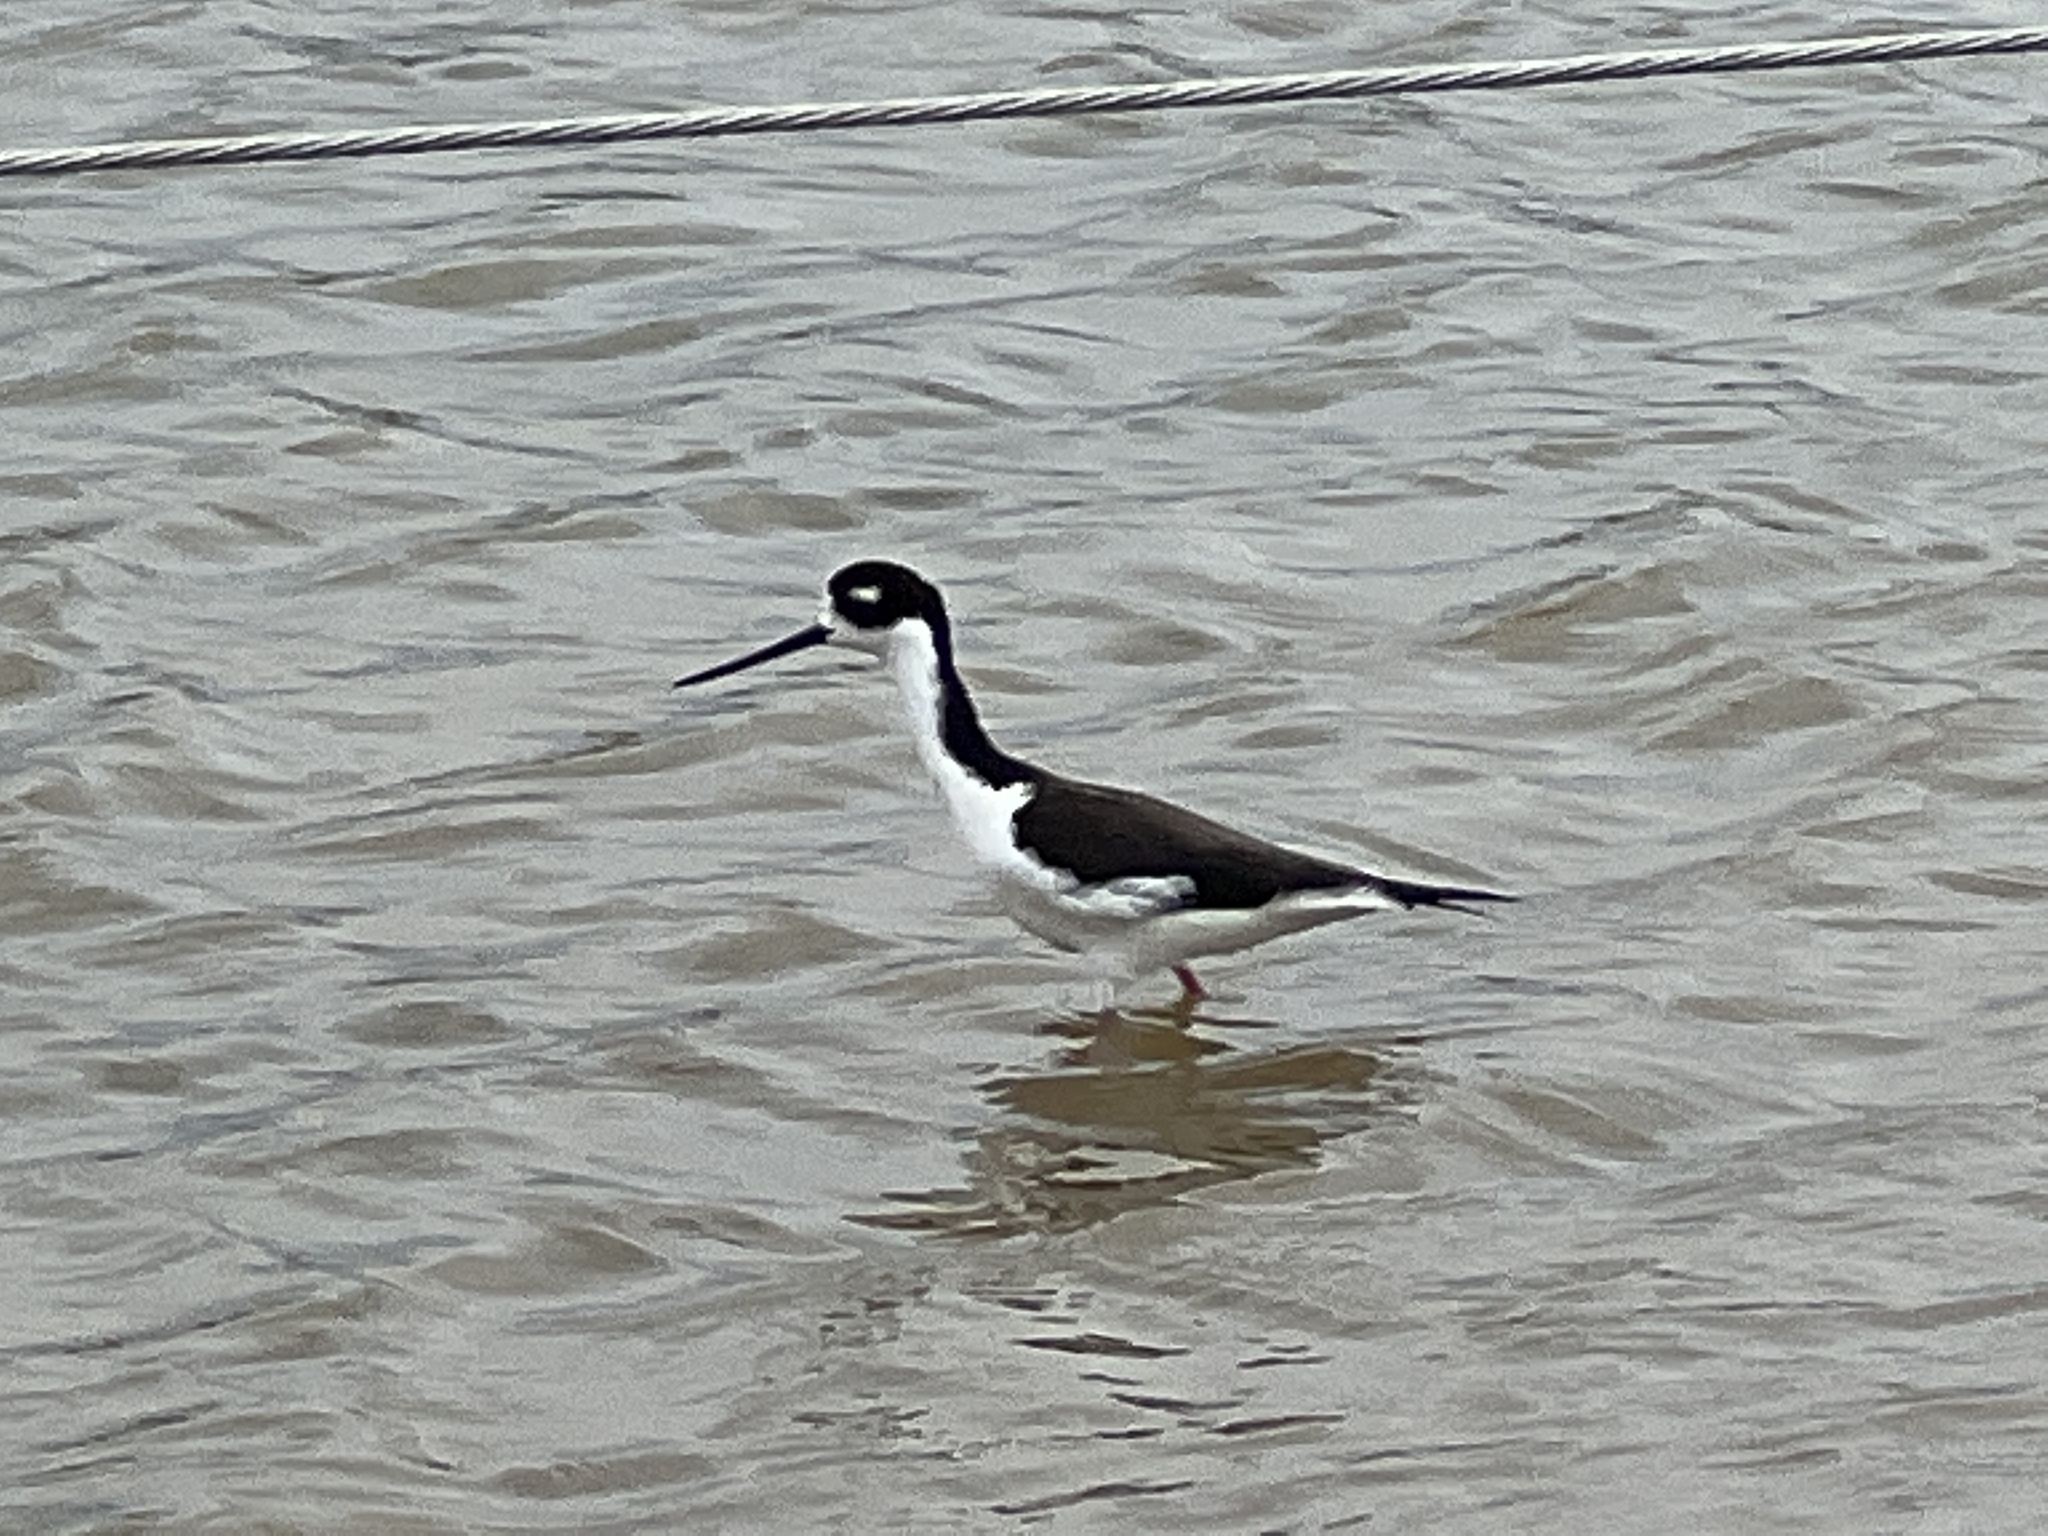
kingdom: Animalia
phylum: Chordata
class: Aves
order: Charadriiformes
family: Recurvirostridae
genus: Himantopus
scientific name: Himantopus mexicanus
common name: Black-necked stilt
